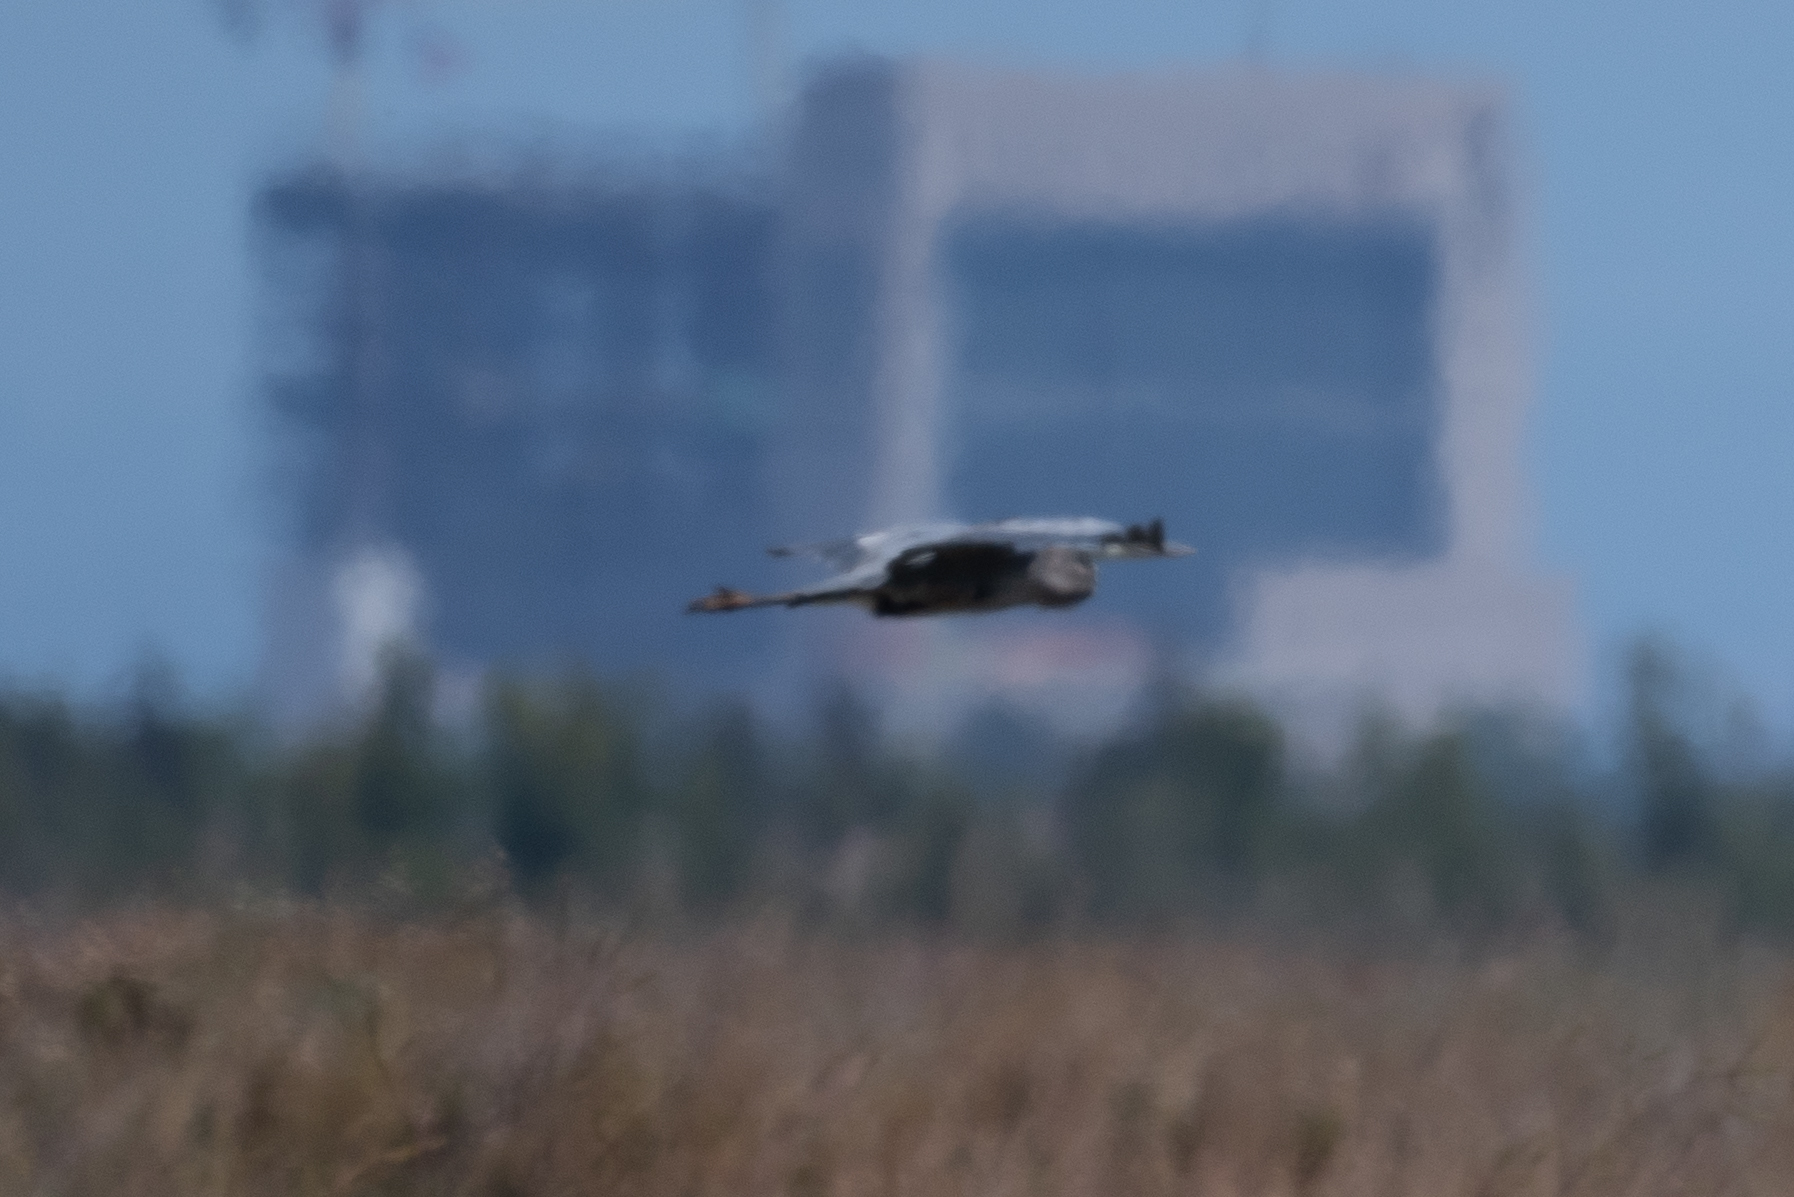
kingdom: Animalia
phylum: Chordata
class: Aves
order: Pelecaniformes
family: Ardeidae
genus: Ardea
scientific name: Ardea herodias
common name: Great blue heron
